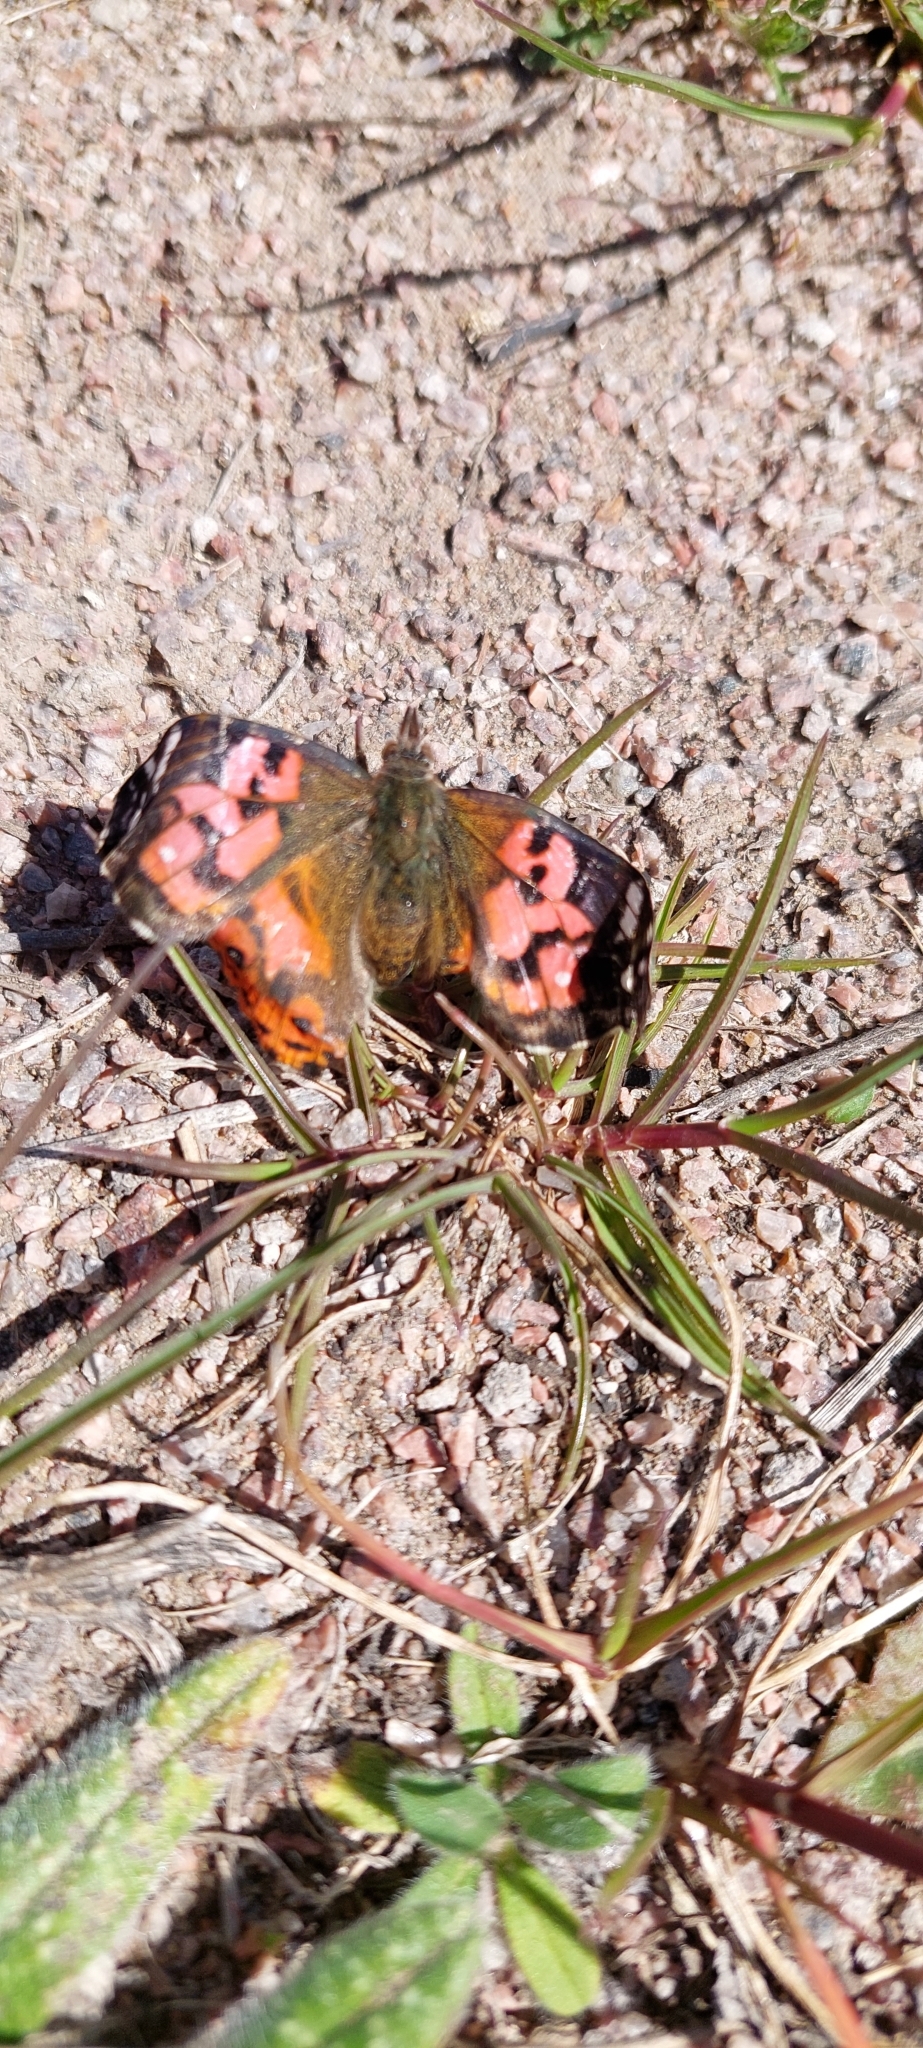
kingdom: Animalia
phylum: Arthropoda
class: Insecta
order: Lepidoptera
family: Nymphalidae
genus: Vanessa
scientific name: Vanessa braziliensis
